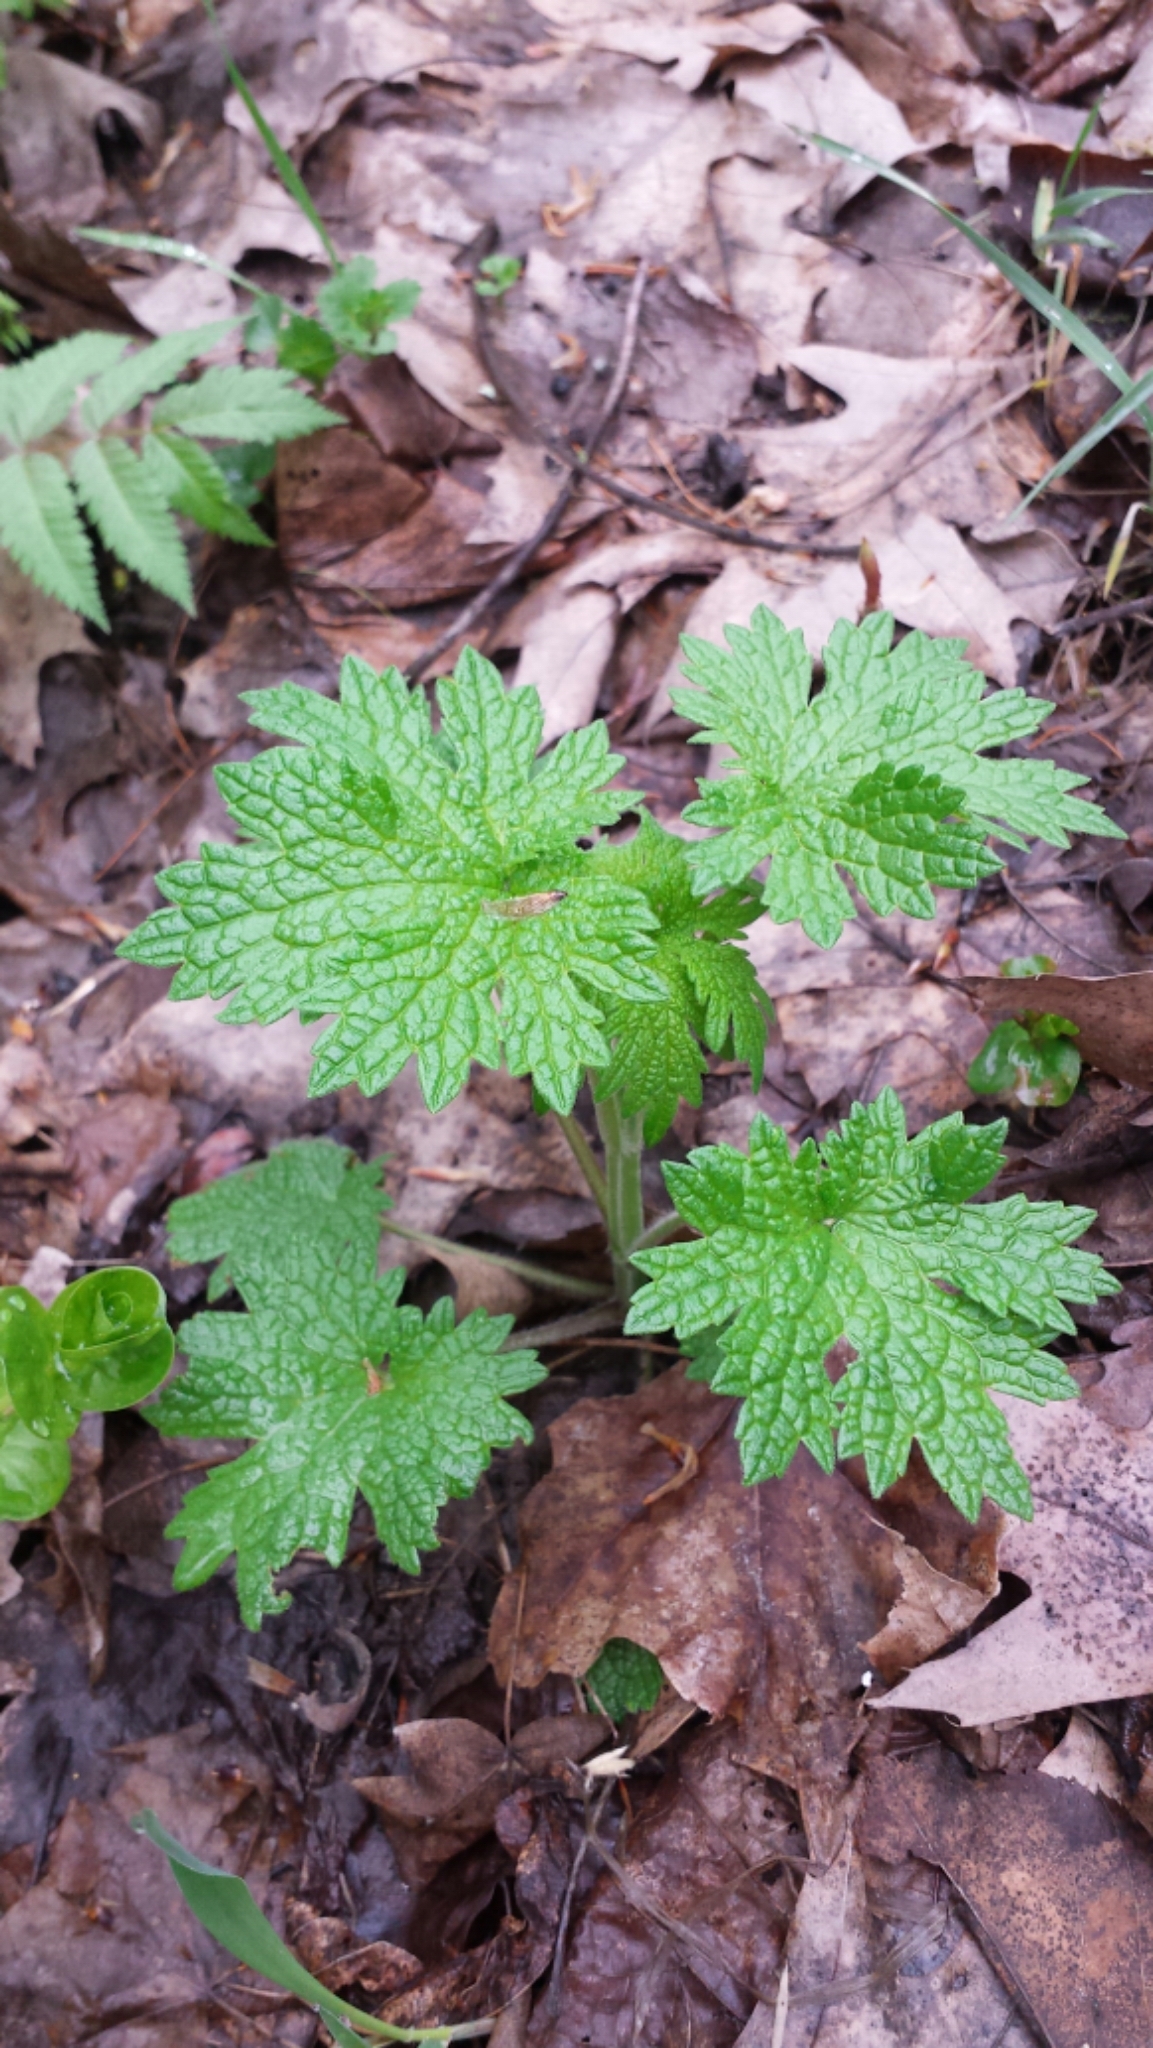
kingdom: Plantae
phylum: Tracheophyta
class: Magnoliopsida
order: Lamiales
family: Lamiaceae
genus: Leonurus
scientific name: Leonurus cardiaca
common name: Motherwort
